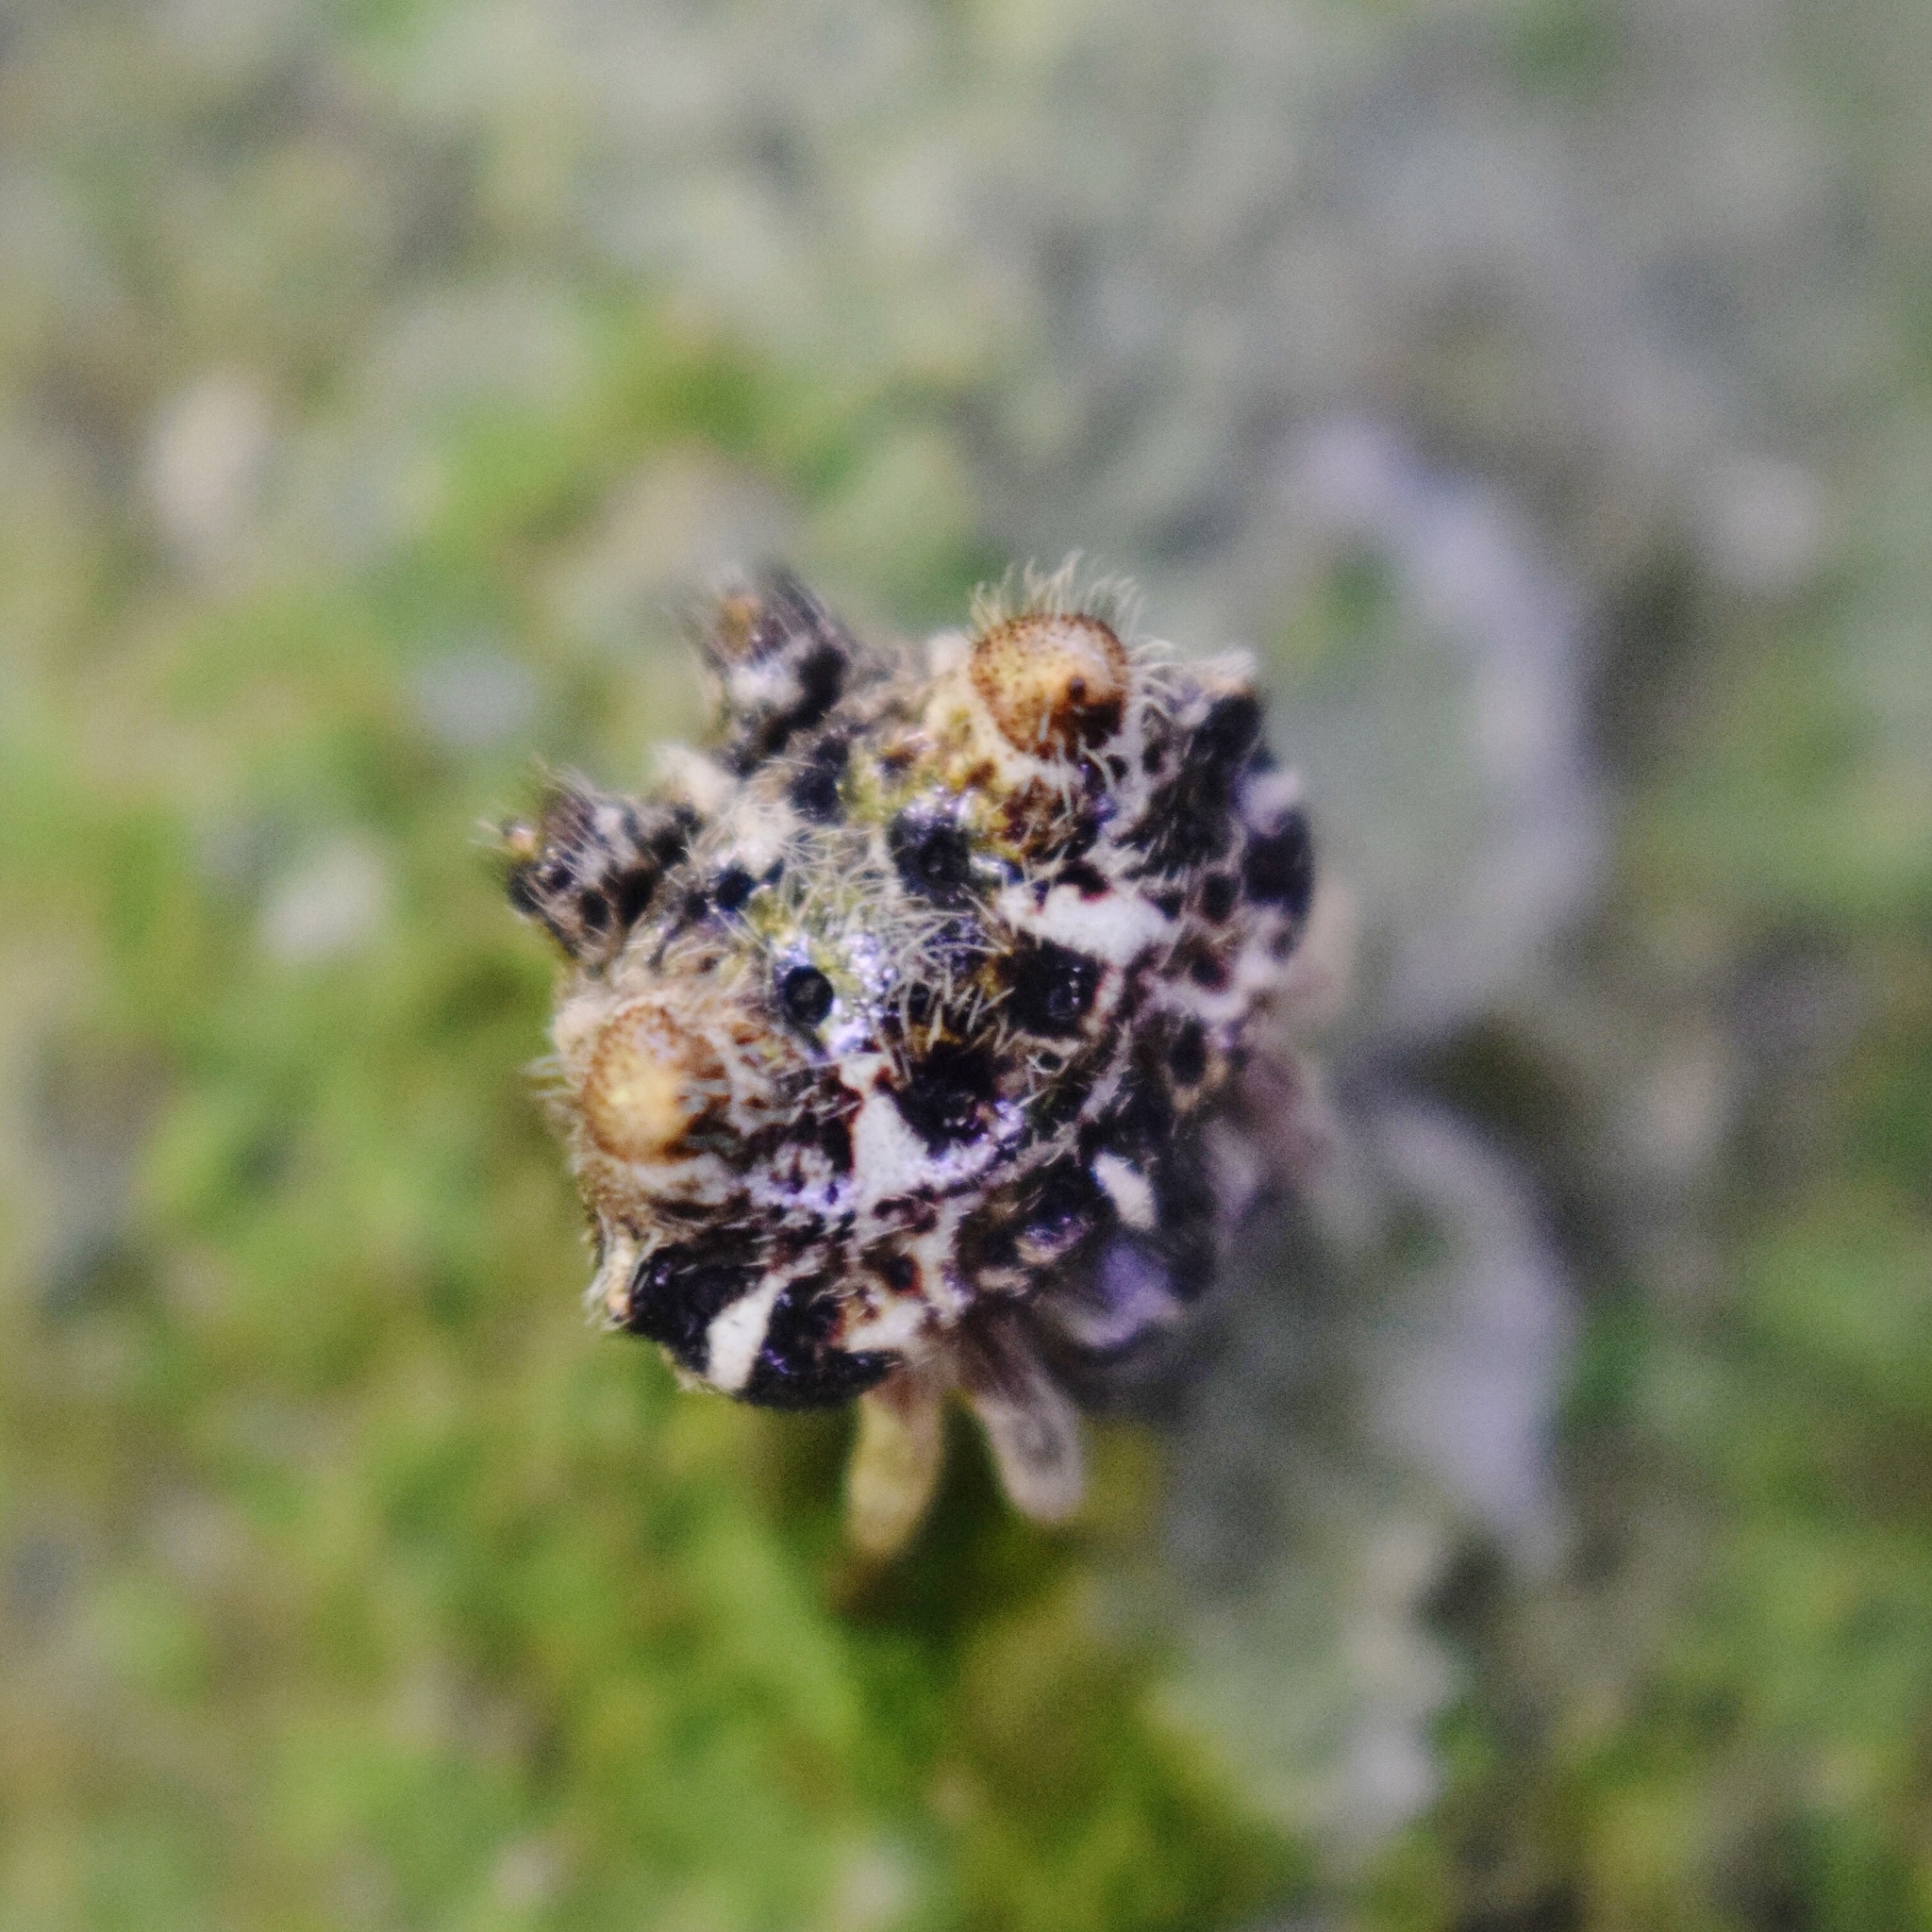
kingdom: Animalia
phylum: Arthropoda
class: Arachnida
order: Araneae
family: Araneidae
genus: Afracantha
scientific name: Afracantha camerunensis
